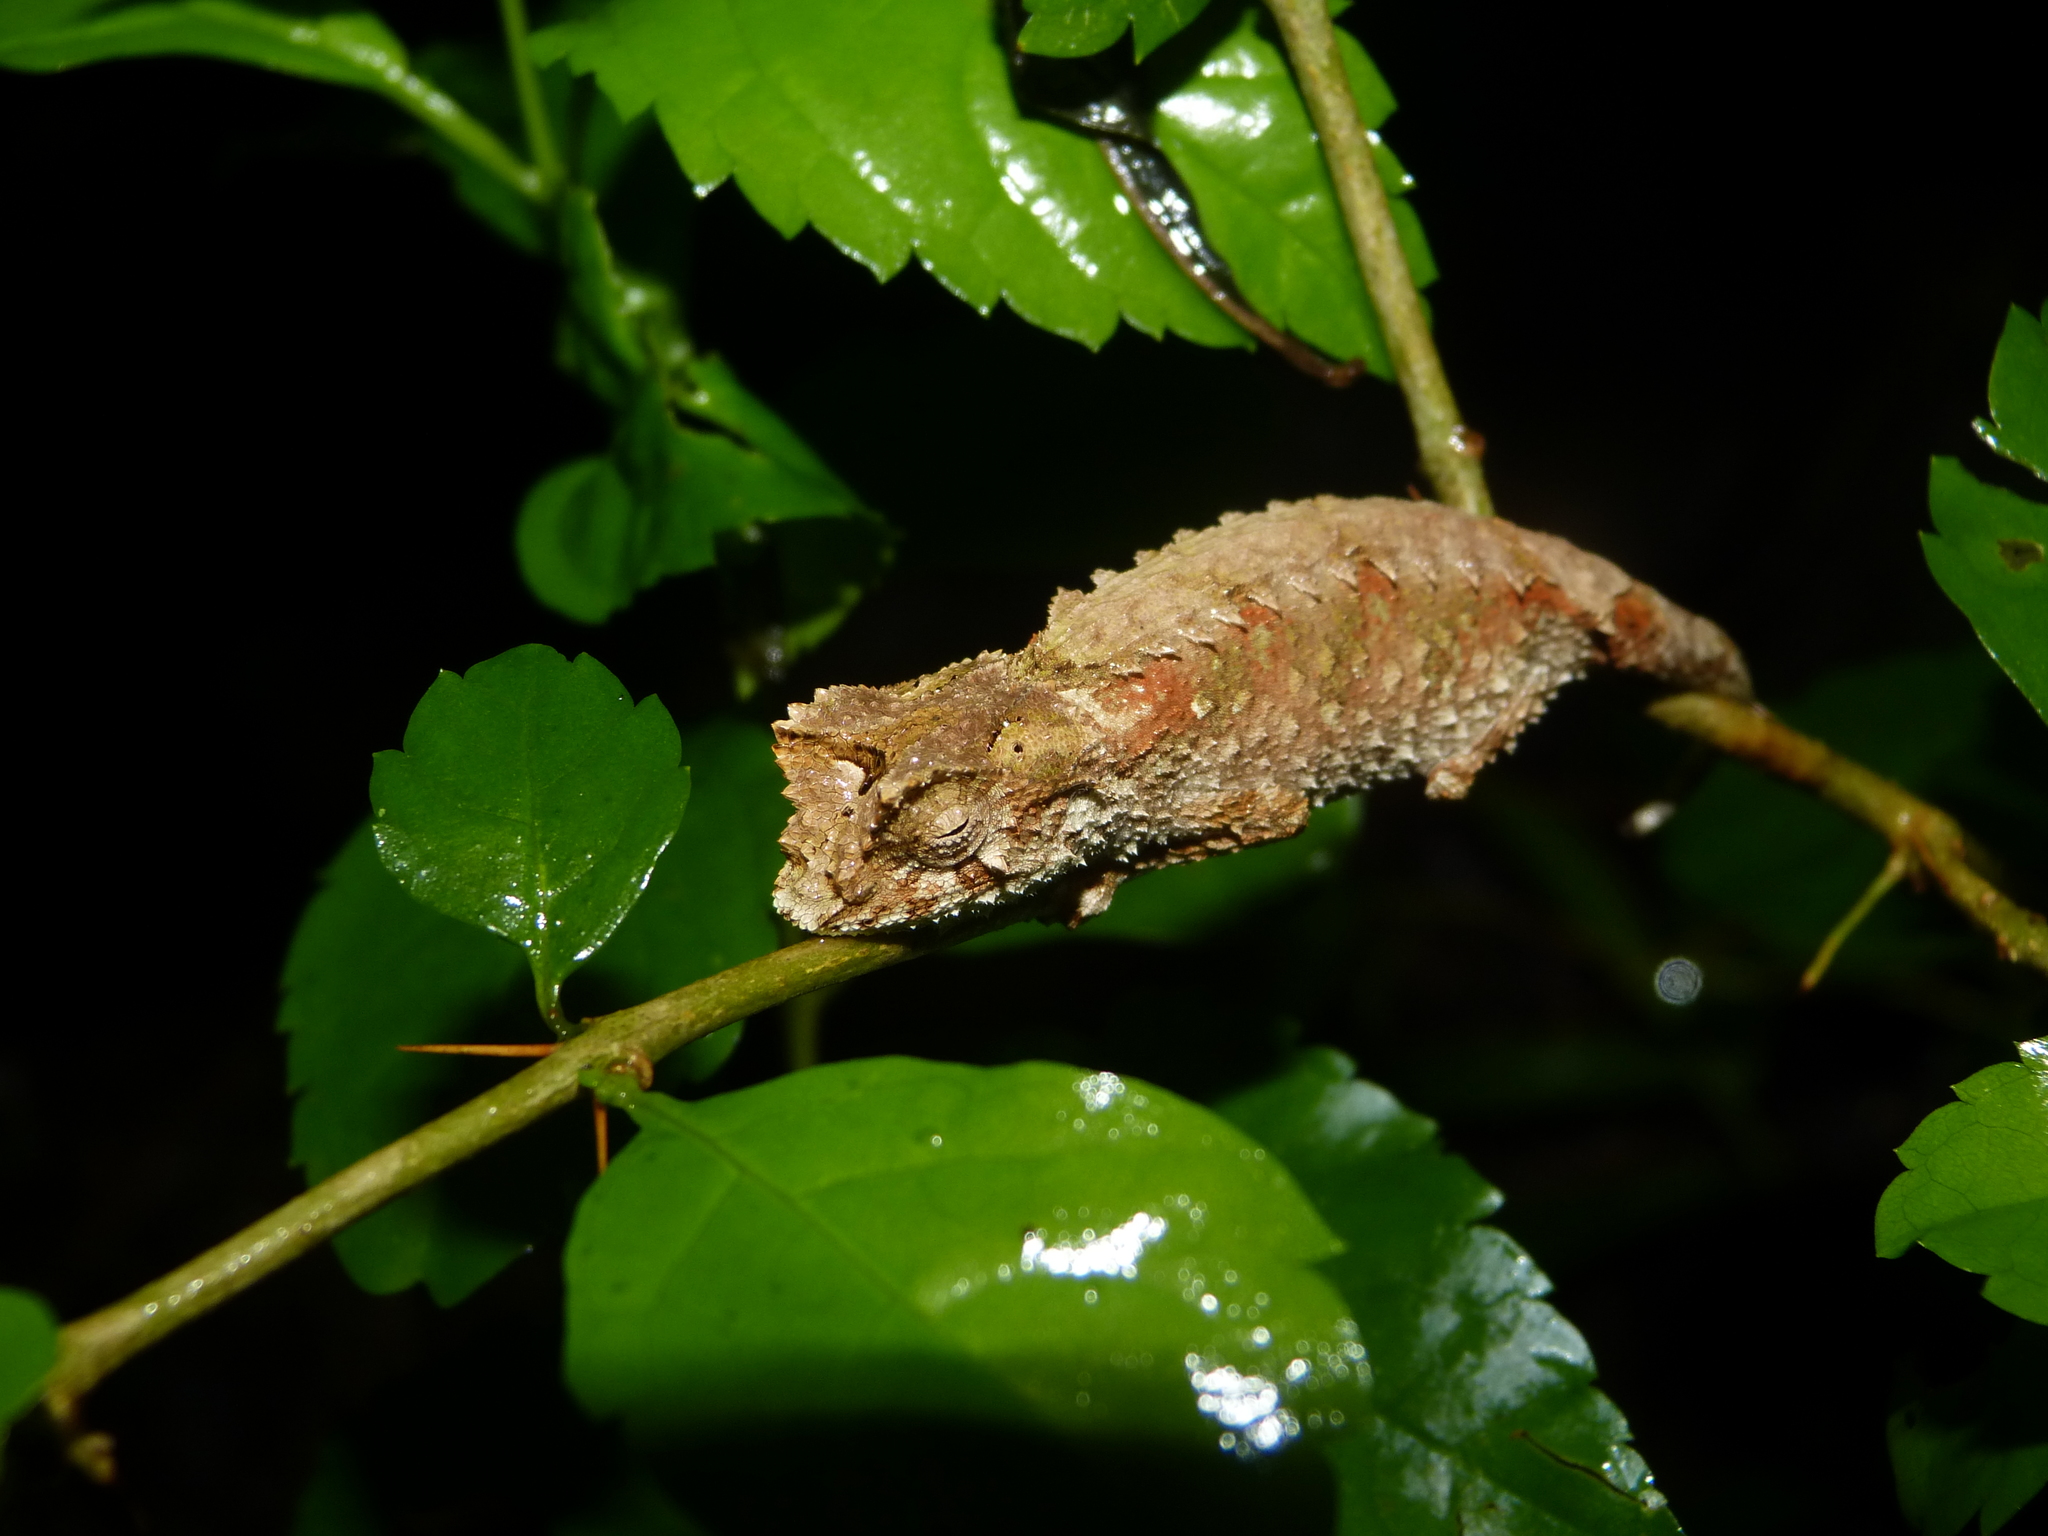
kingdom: Animalia
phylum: Chordata
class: Squamata
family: Chamaeleonidae
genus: Brookesia
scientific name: Brookesia antakarana
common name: Antakarana leaf chameleon
